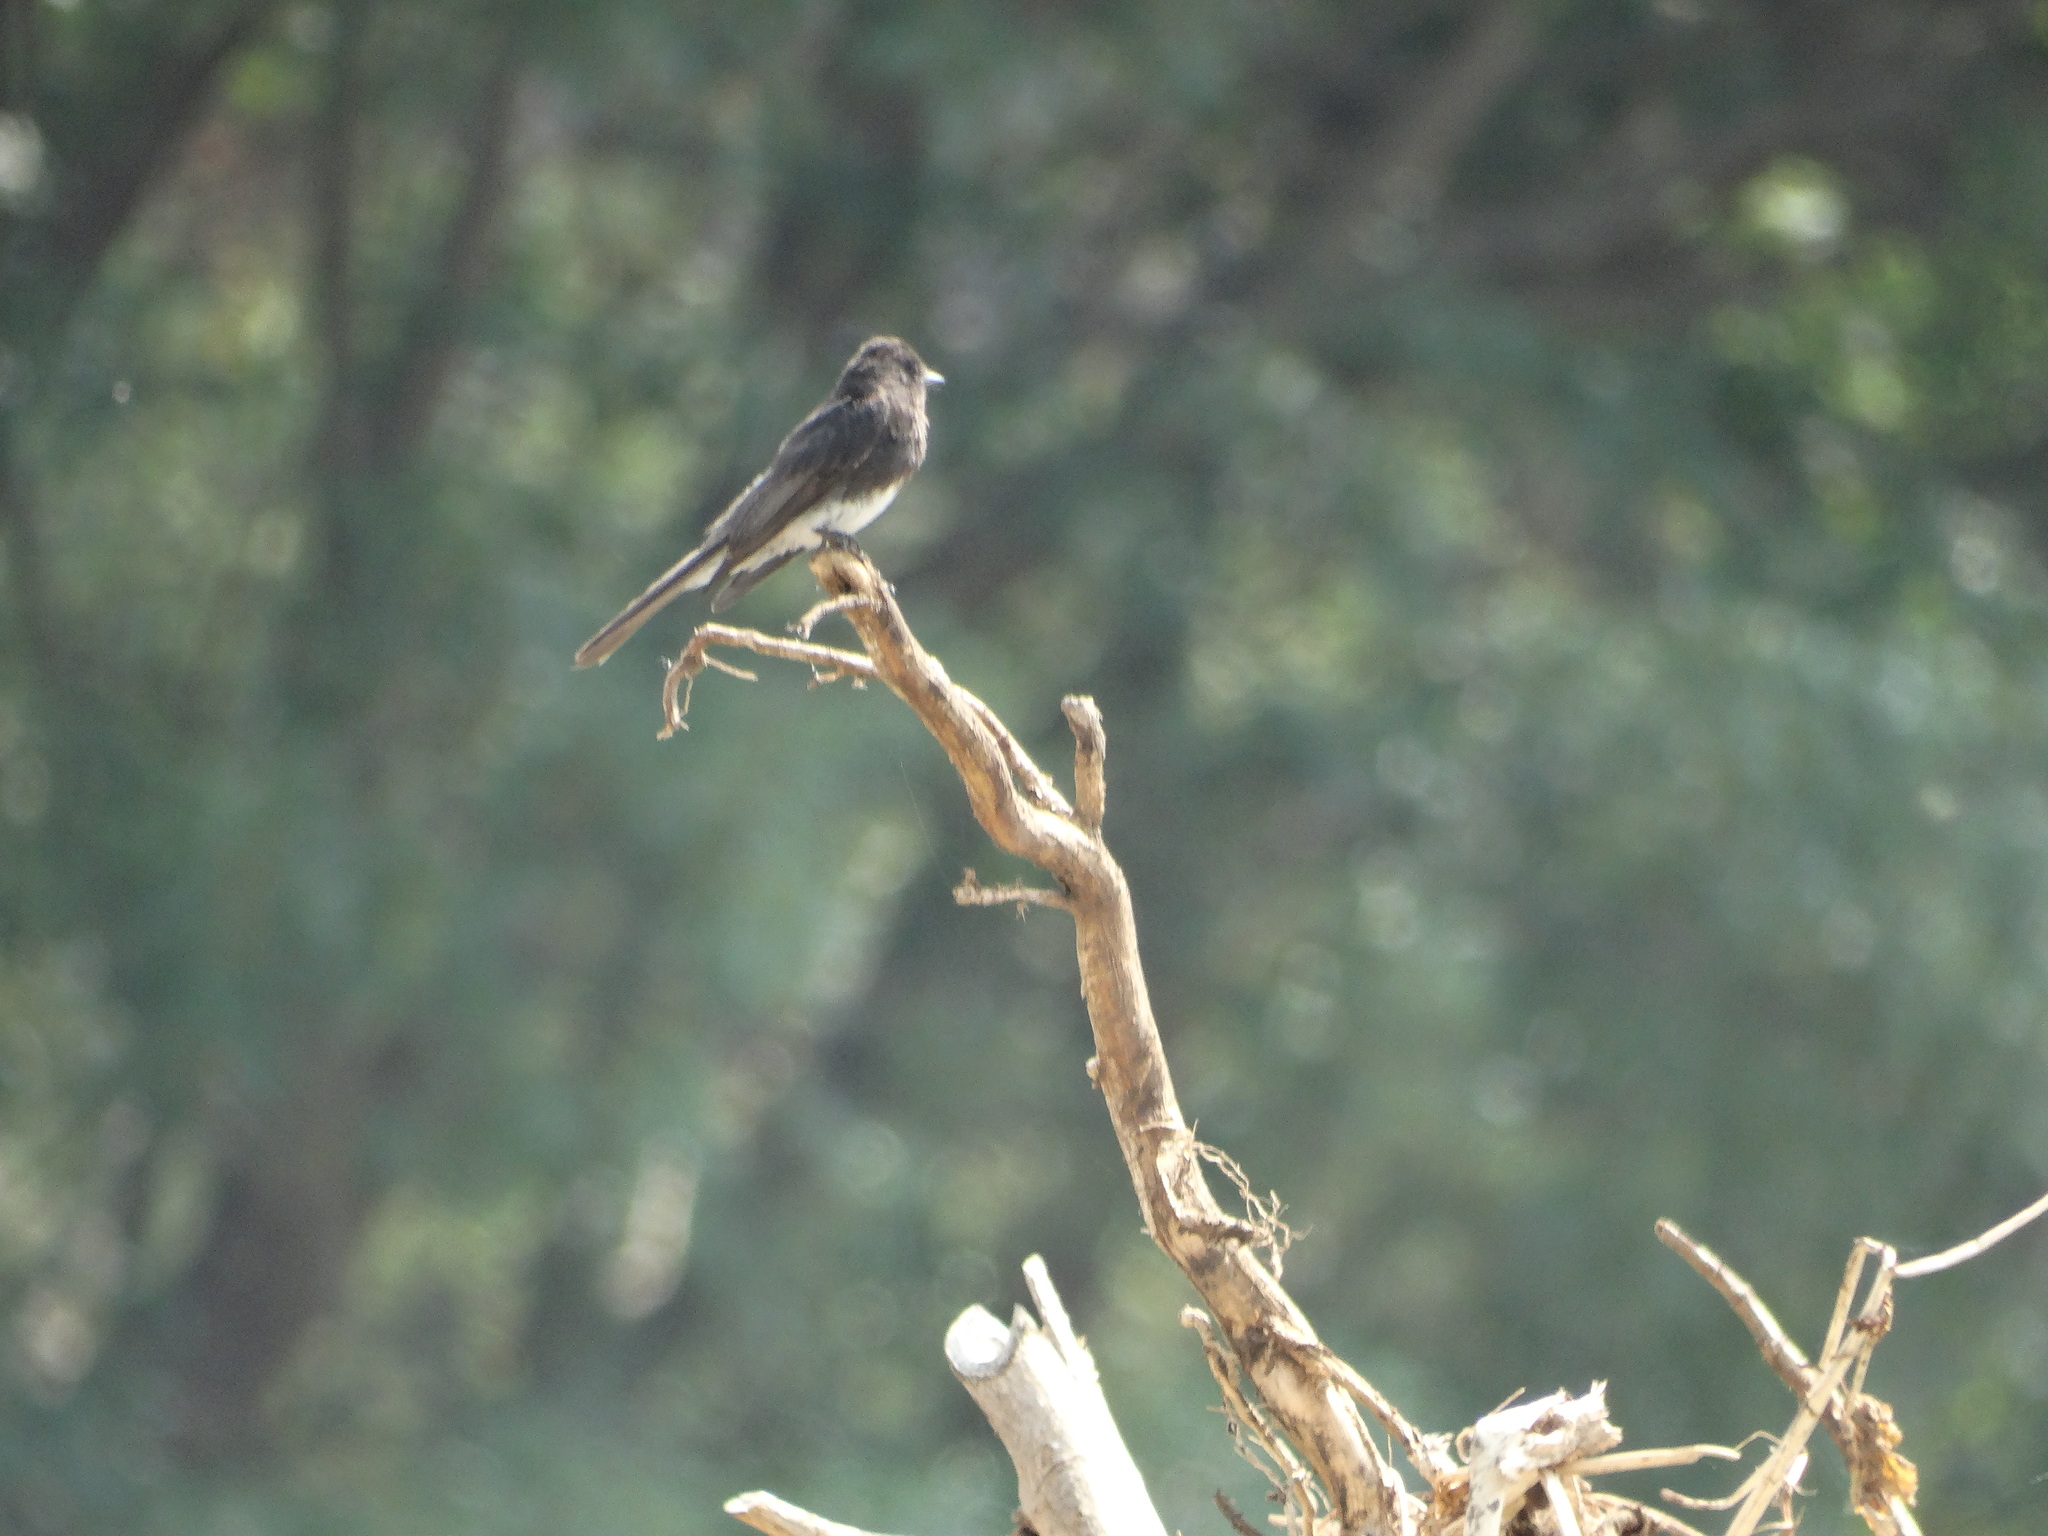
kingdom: Animalia
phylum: Chordata
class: Aves
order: Passeriformes
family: Tyrannidae
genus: Sayornis
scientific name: Sayornis nigricans
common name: Black phoebe
